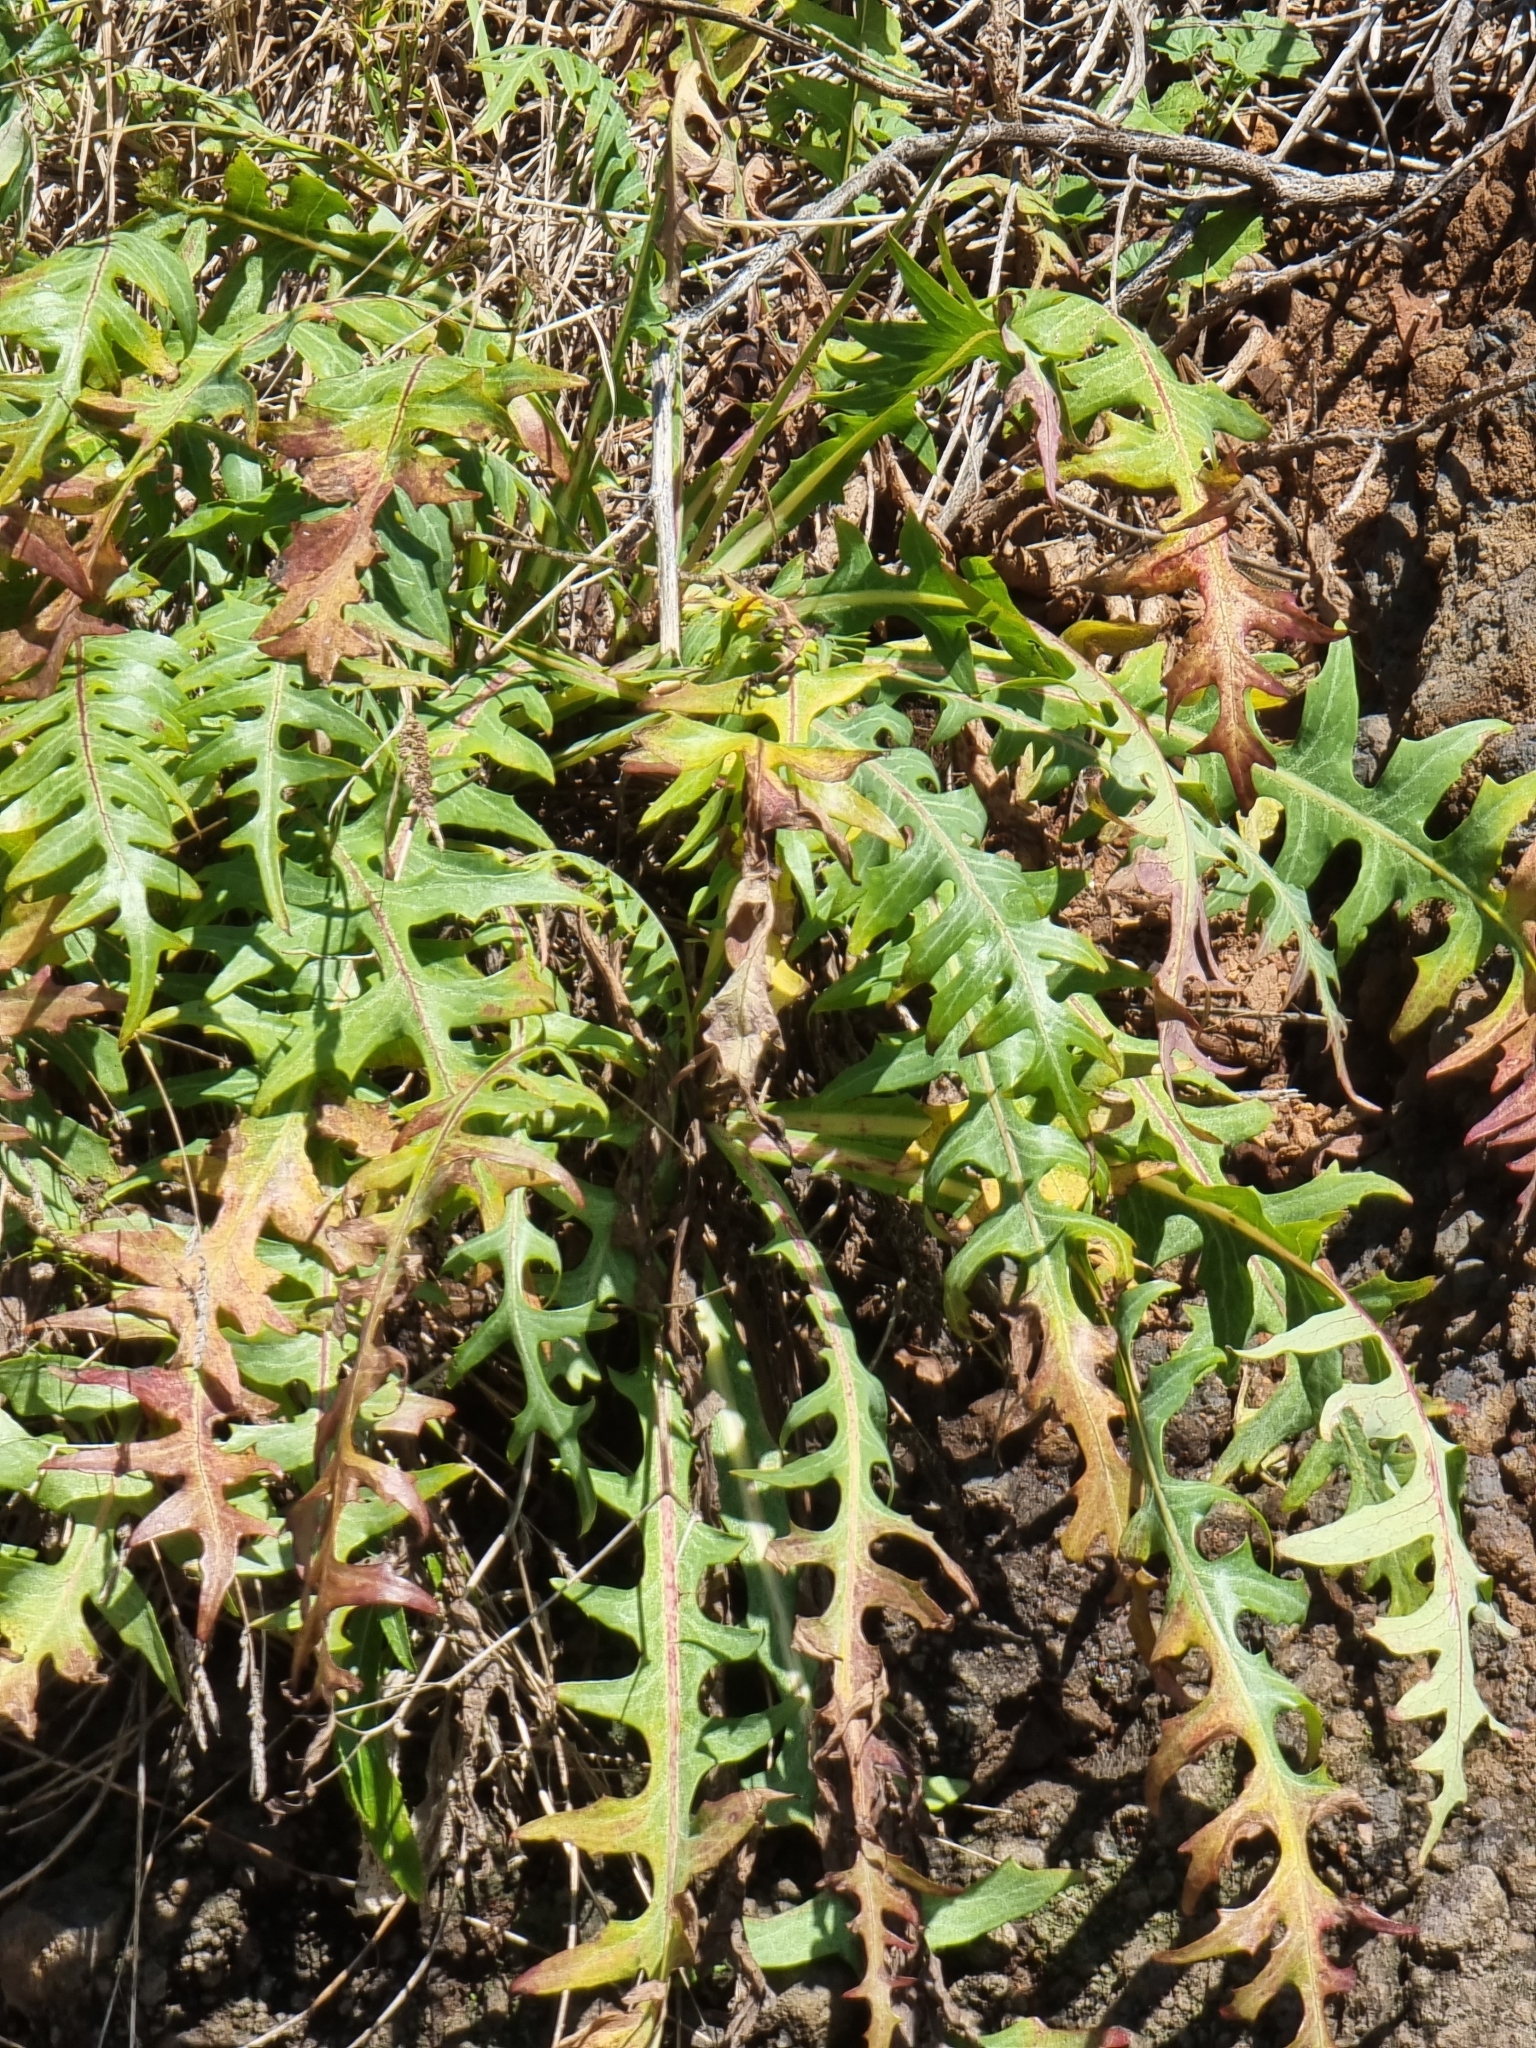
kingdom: Plantae
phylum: Tracheophyta
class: Magnoliopsida
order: Asterales
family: Asteraceae
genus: Sonchus
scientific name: Sonchus ustulatus
